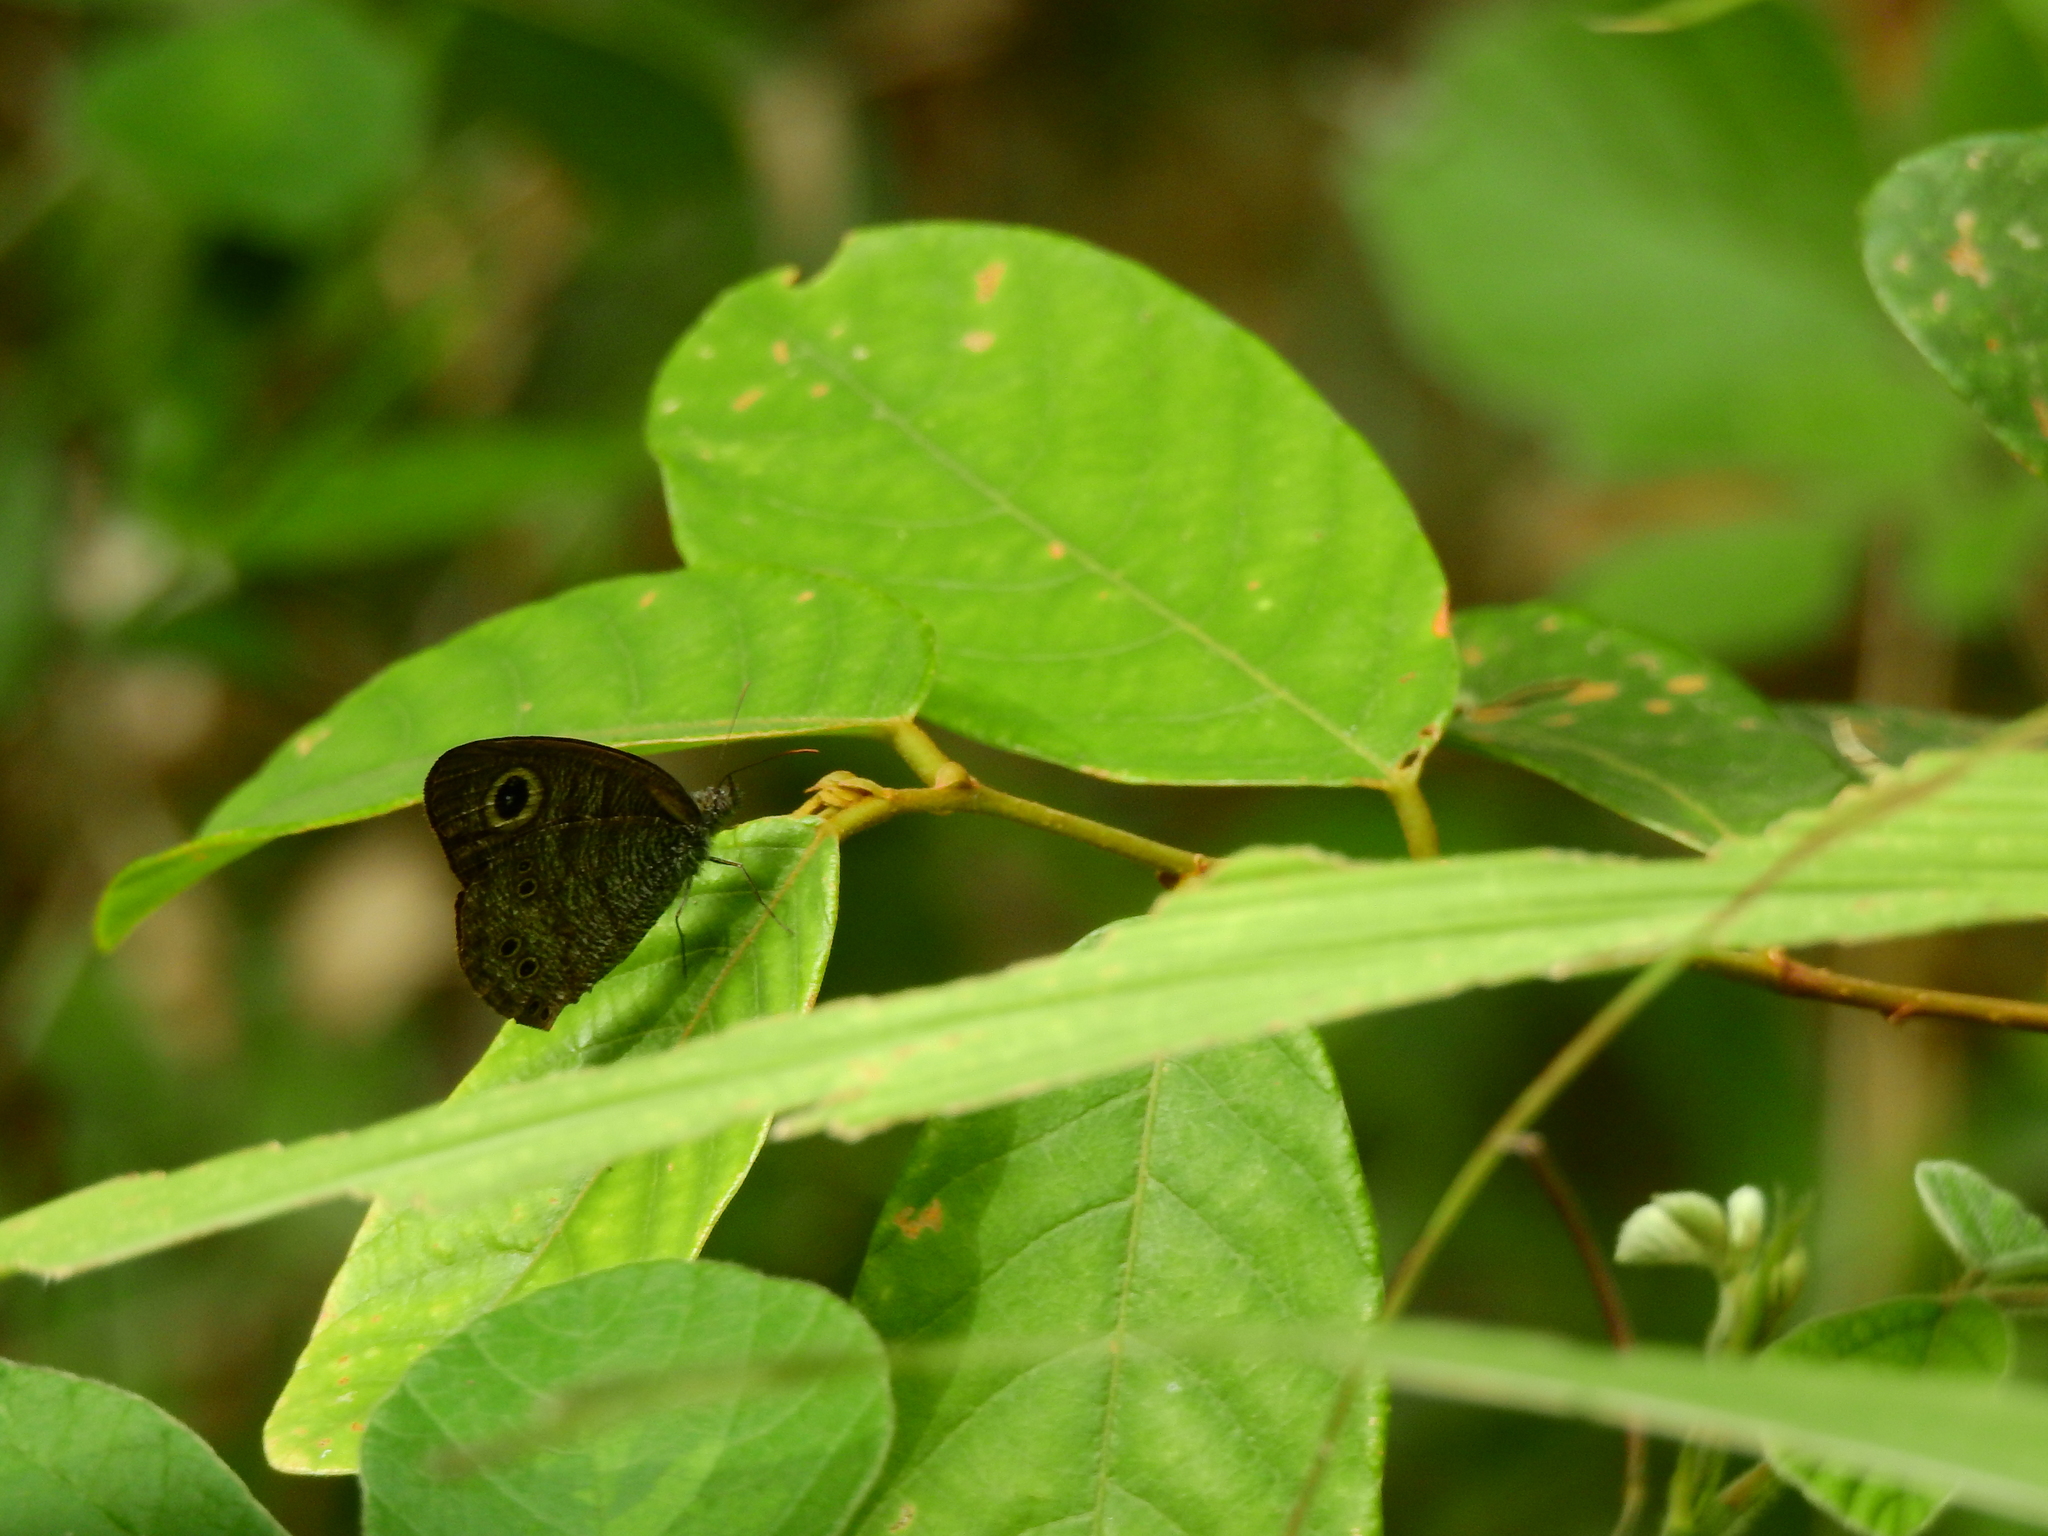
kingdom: Animalia
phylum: Arthropoda
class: Insecta
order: Lepidoptera
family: Nymphalidae
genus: Ypthima
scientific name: Ypthima baldus
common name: Common five-ring
